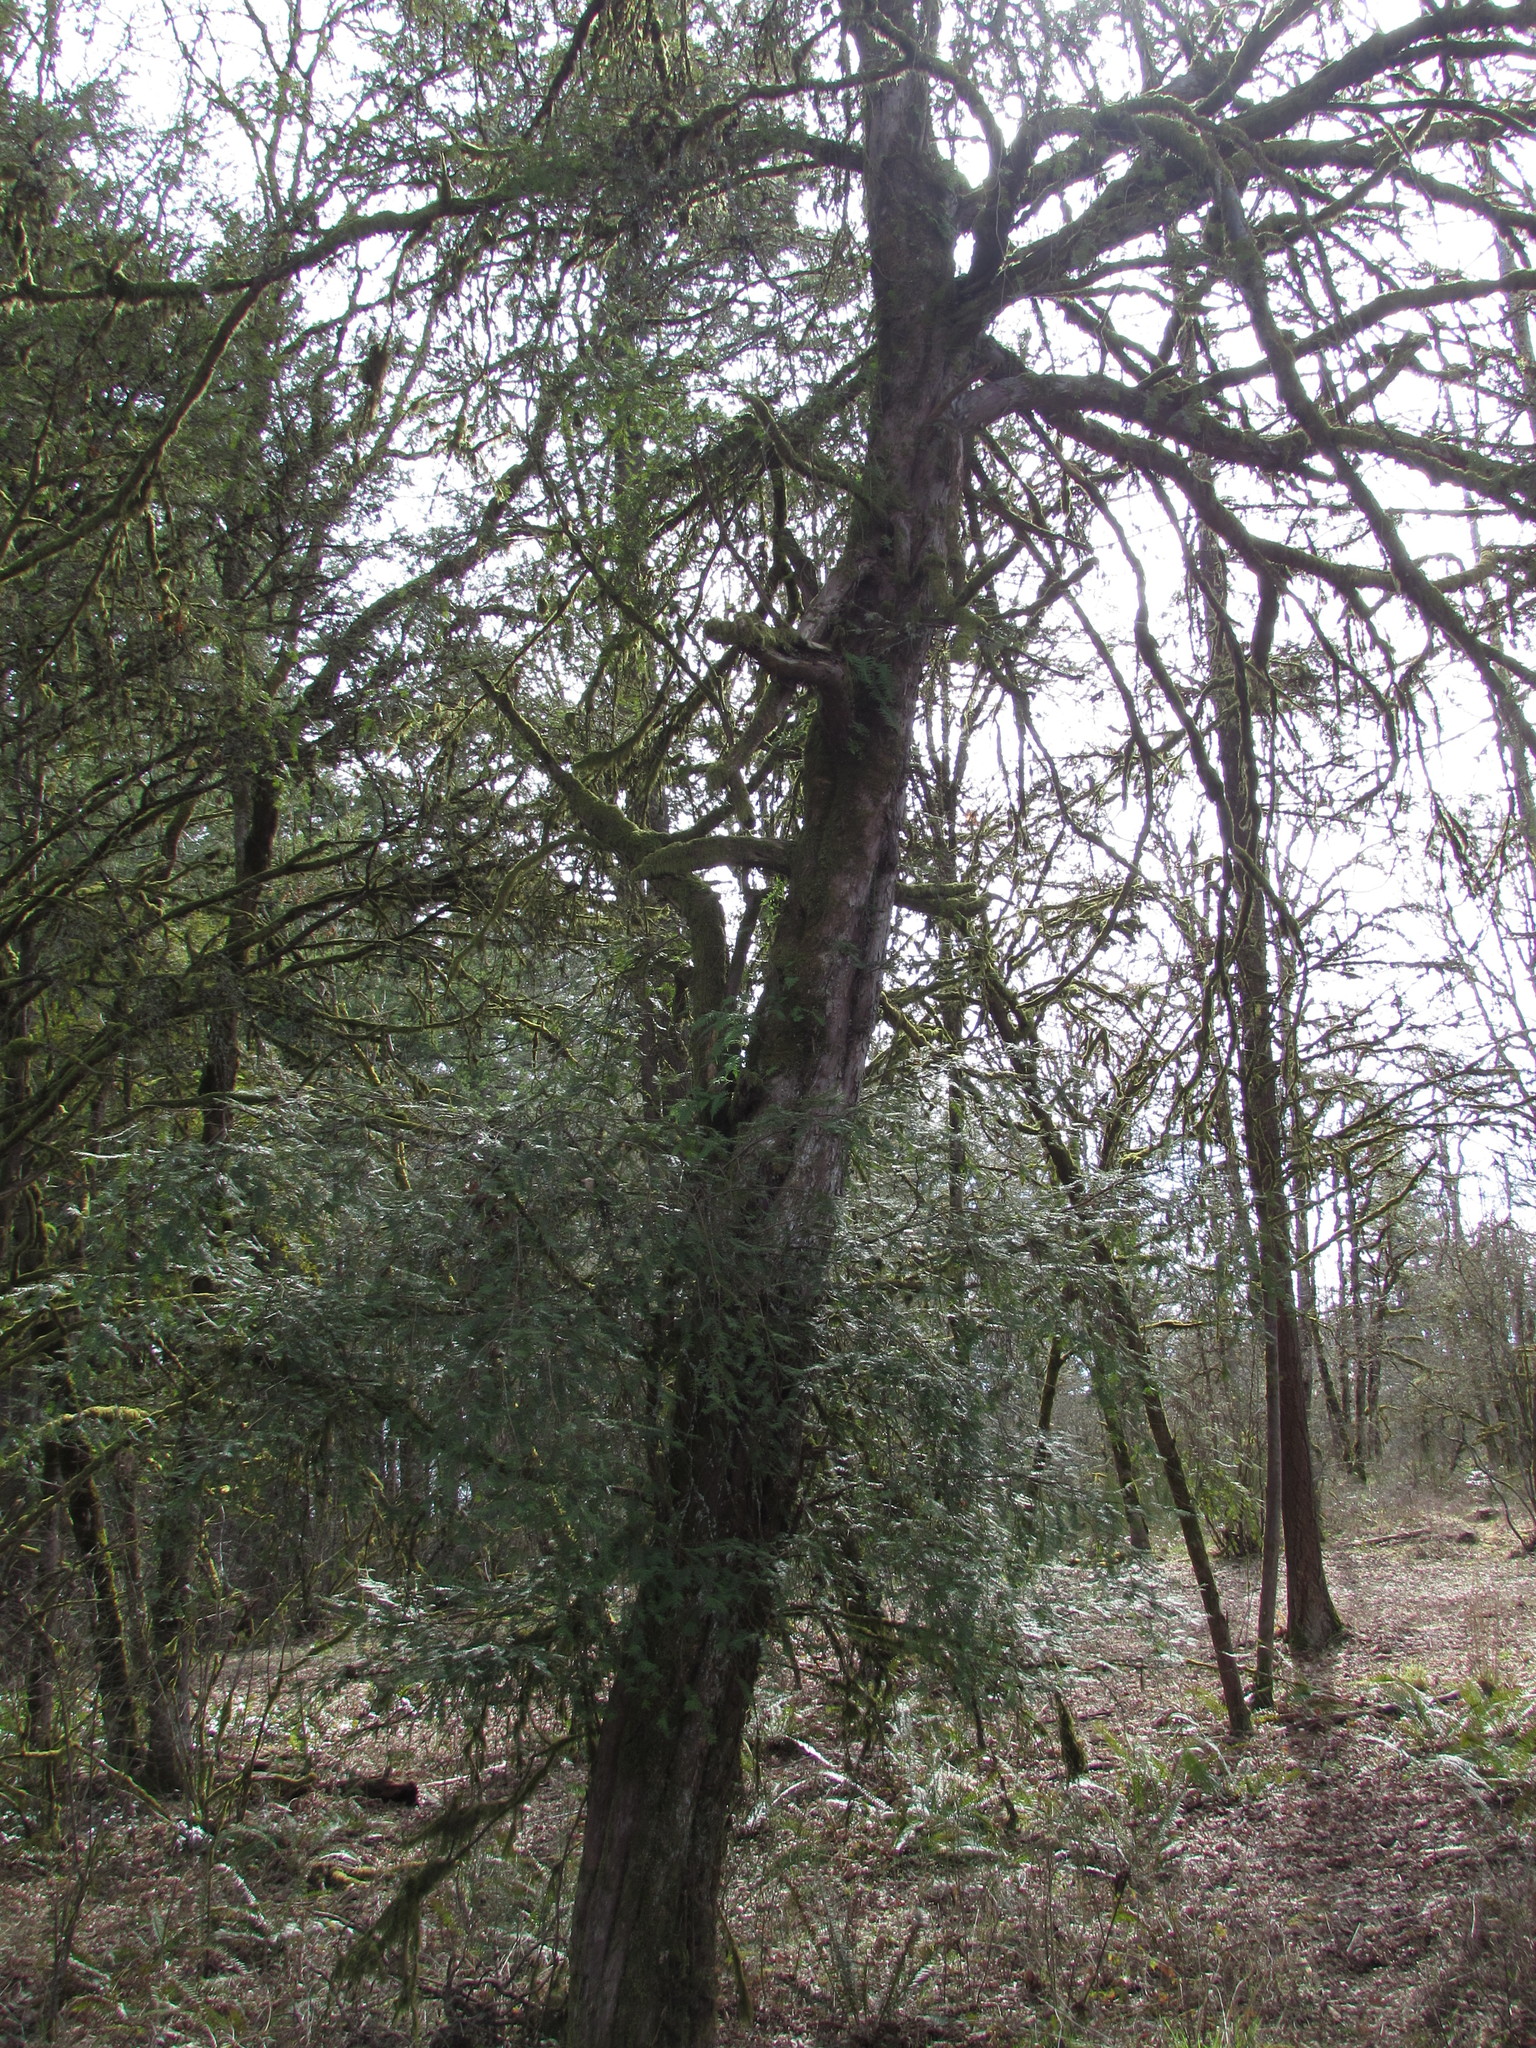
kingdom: Plantae
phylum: Tracheophyta
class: Pinopsida
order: Pinales
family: Taxaceae
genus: Taxus
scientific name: Taxus brevifolia
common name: Pacific yew
